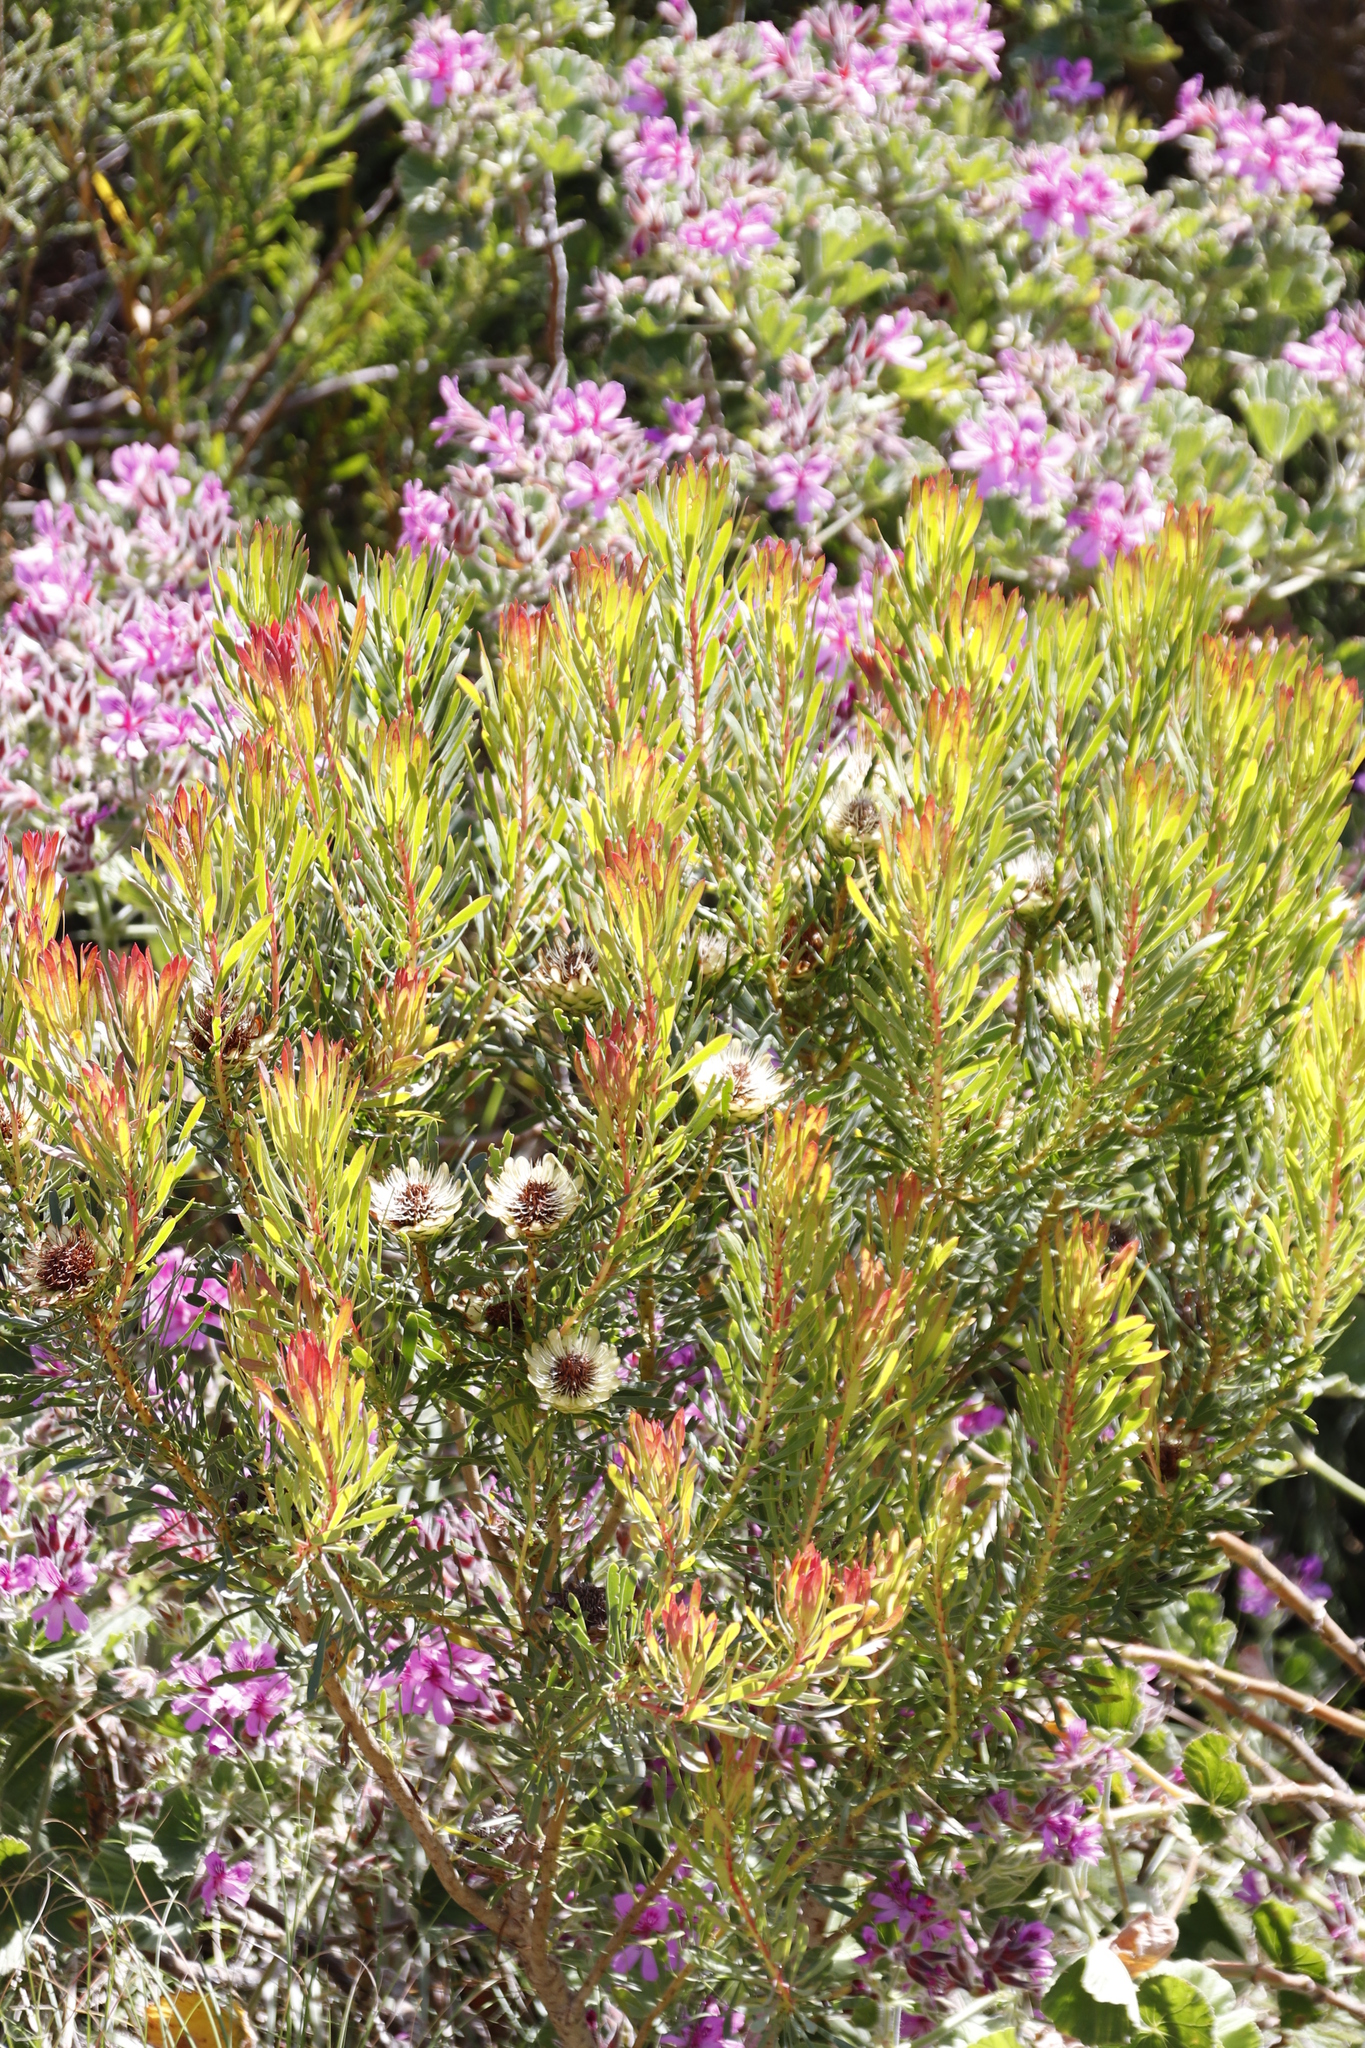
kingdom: Plantae
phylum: Tracheophyta
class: Magnoliopsida
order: Proteales
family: Proteaceae
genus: Protea
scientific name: Protea scolymocephala
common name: Thistle sugarbush
